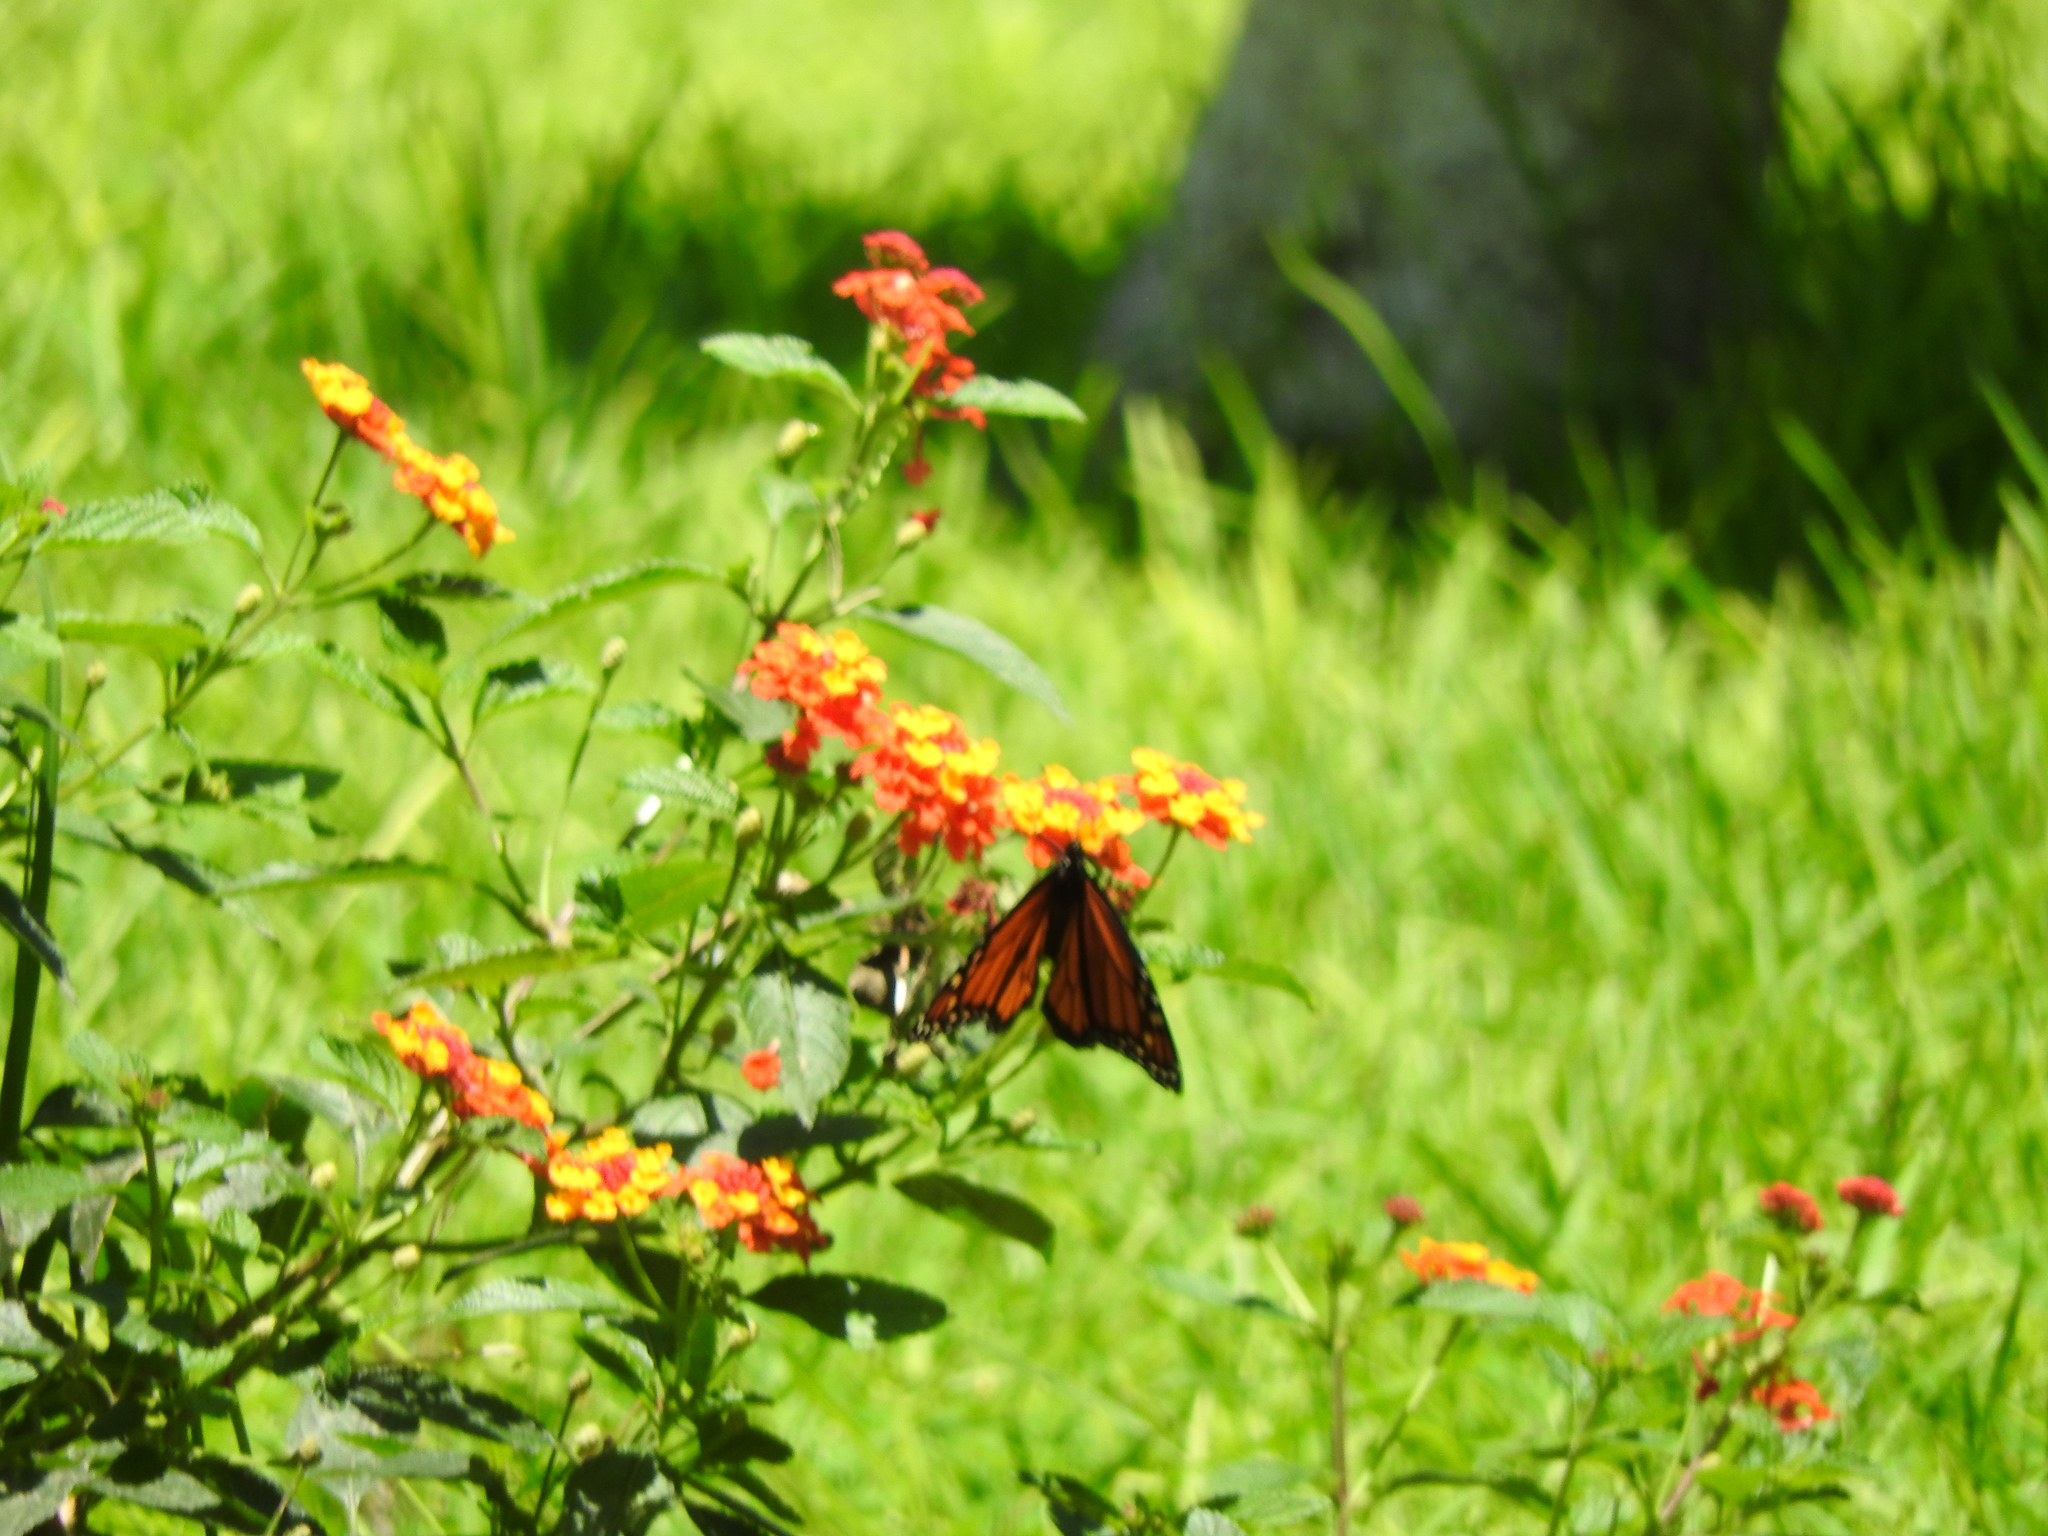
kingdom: Animalia
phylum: Arthropoda
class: Insecta
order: Lepidoptera
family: Nymphalidae
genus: Danaus
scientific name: Danaus plexippus
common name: Monarch
